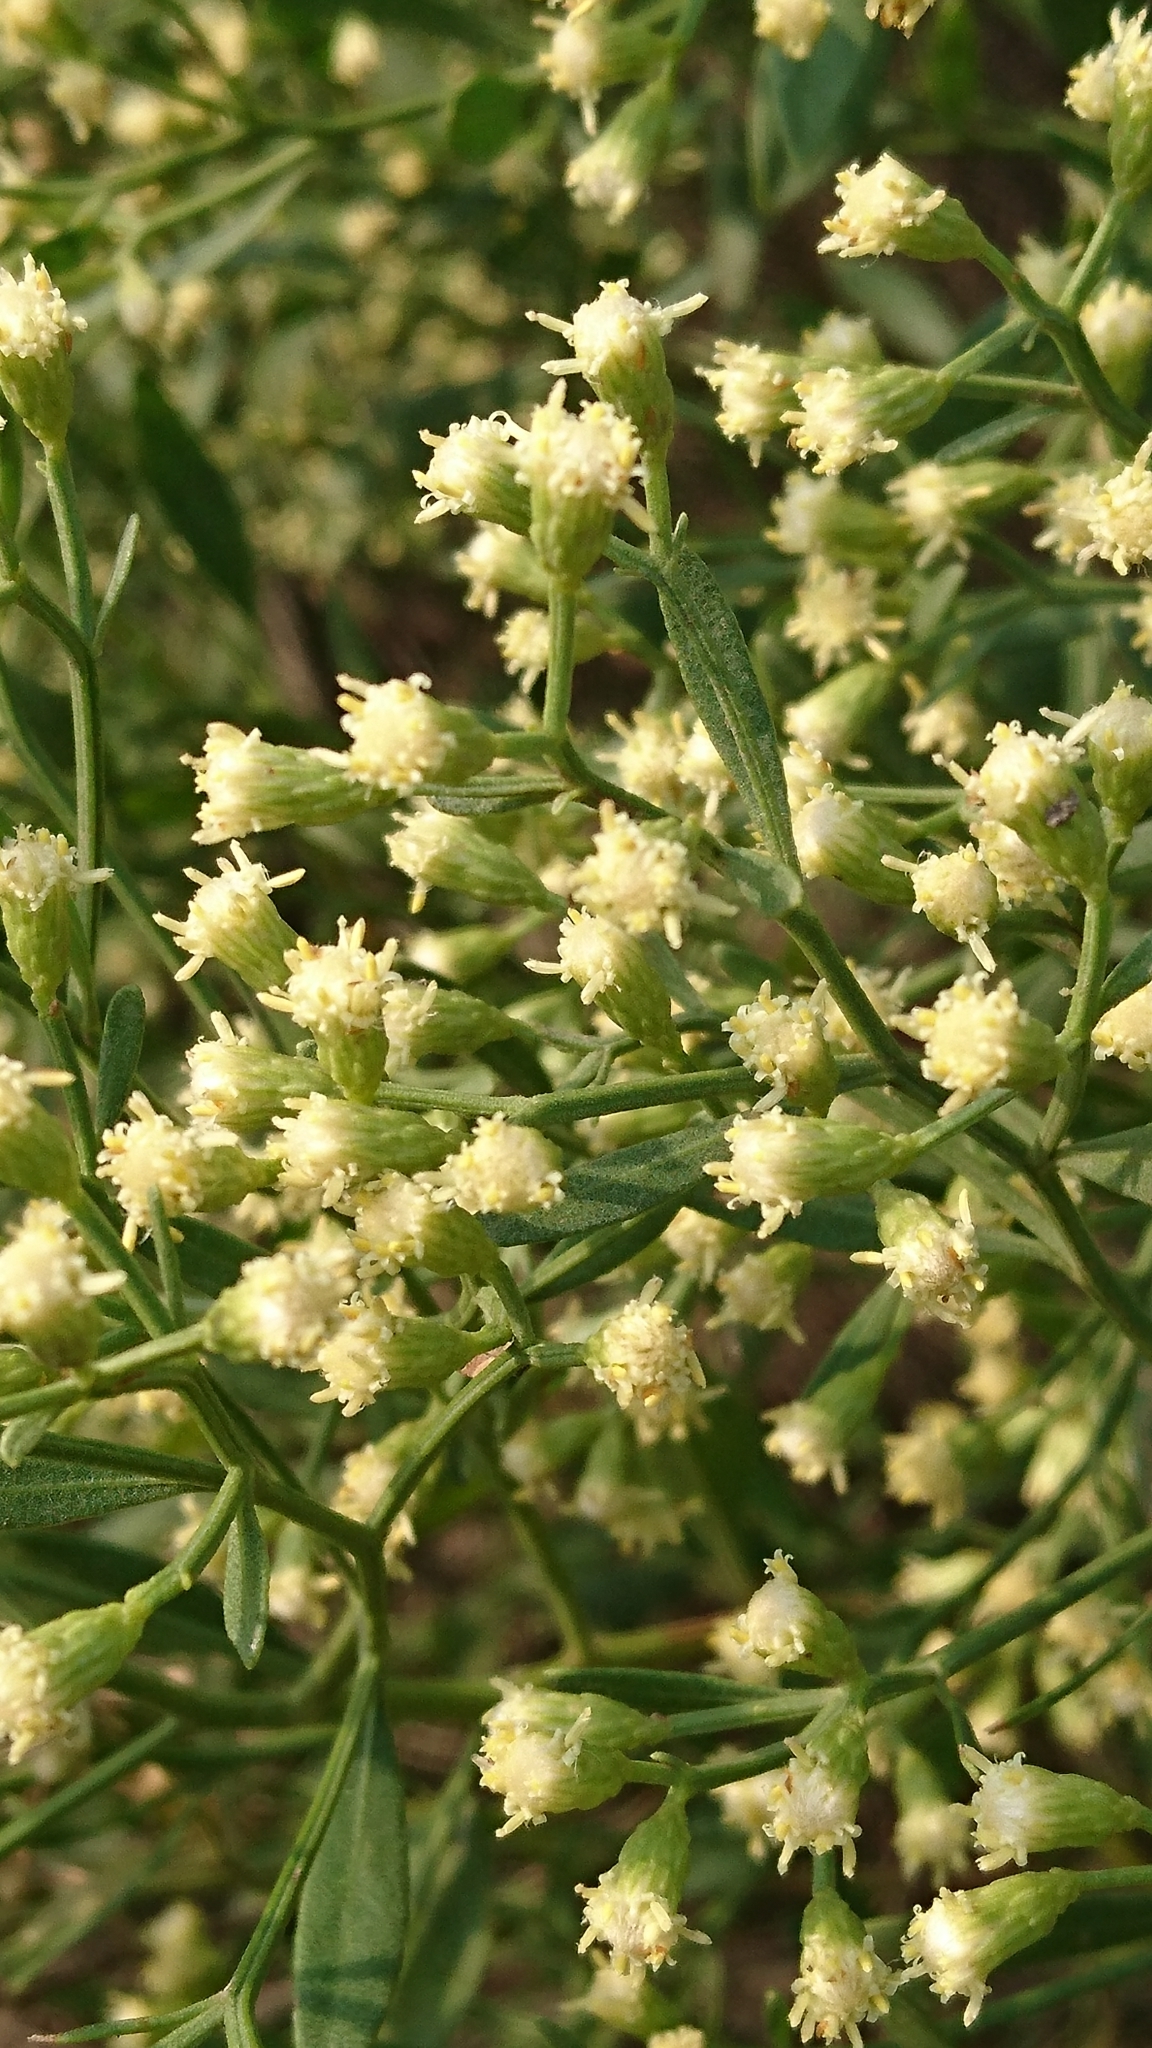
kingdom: Plantae
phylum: Tracheophyta
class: Magnoliopsida
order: Asterales
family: Asteraceae
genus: Baccharis
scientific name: Baccharis halimifolia
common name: Eastern baccharis
